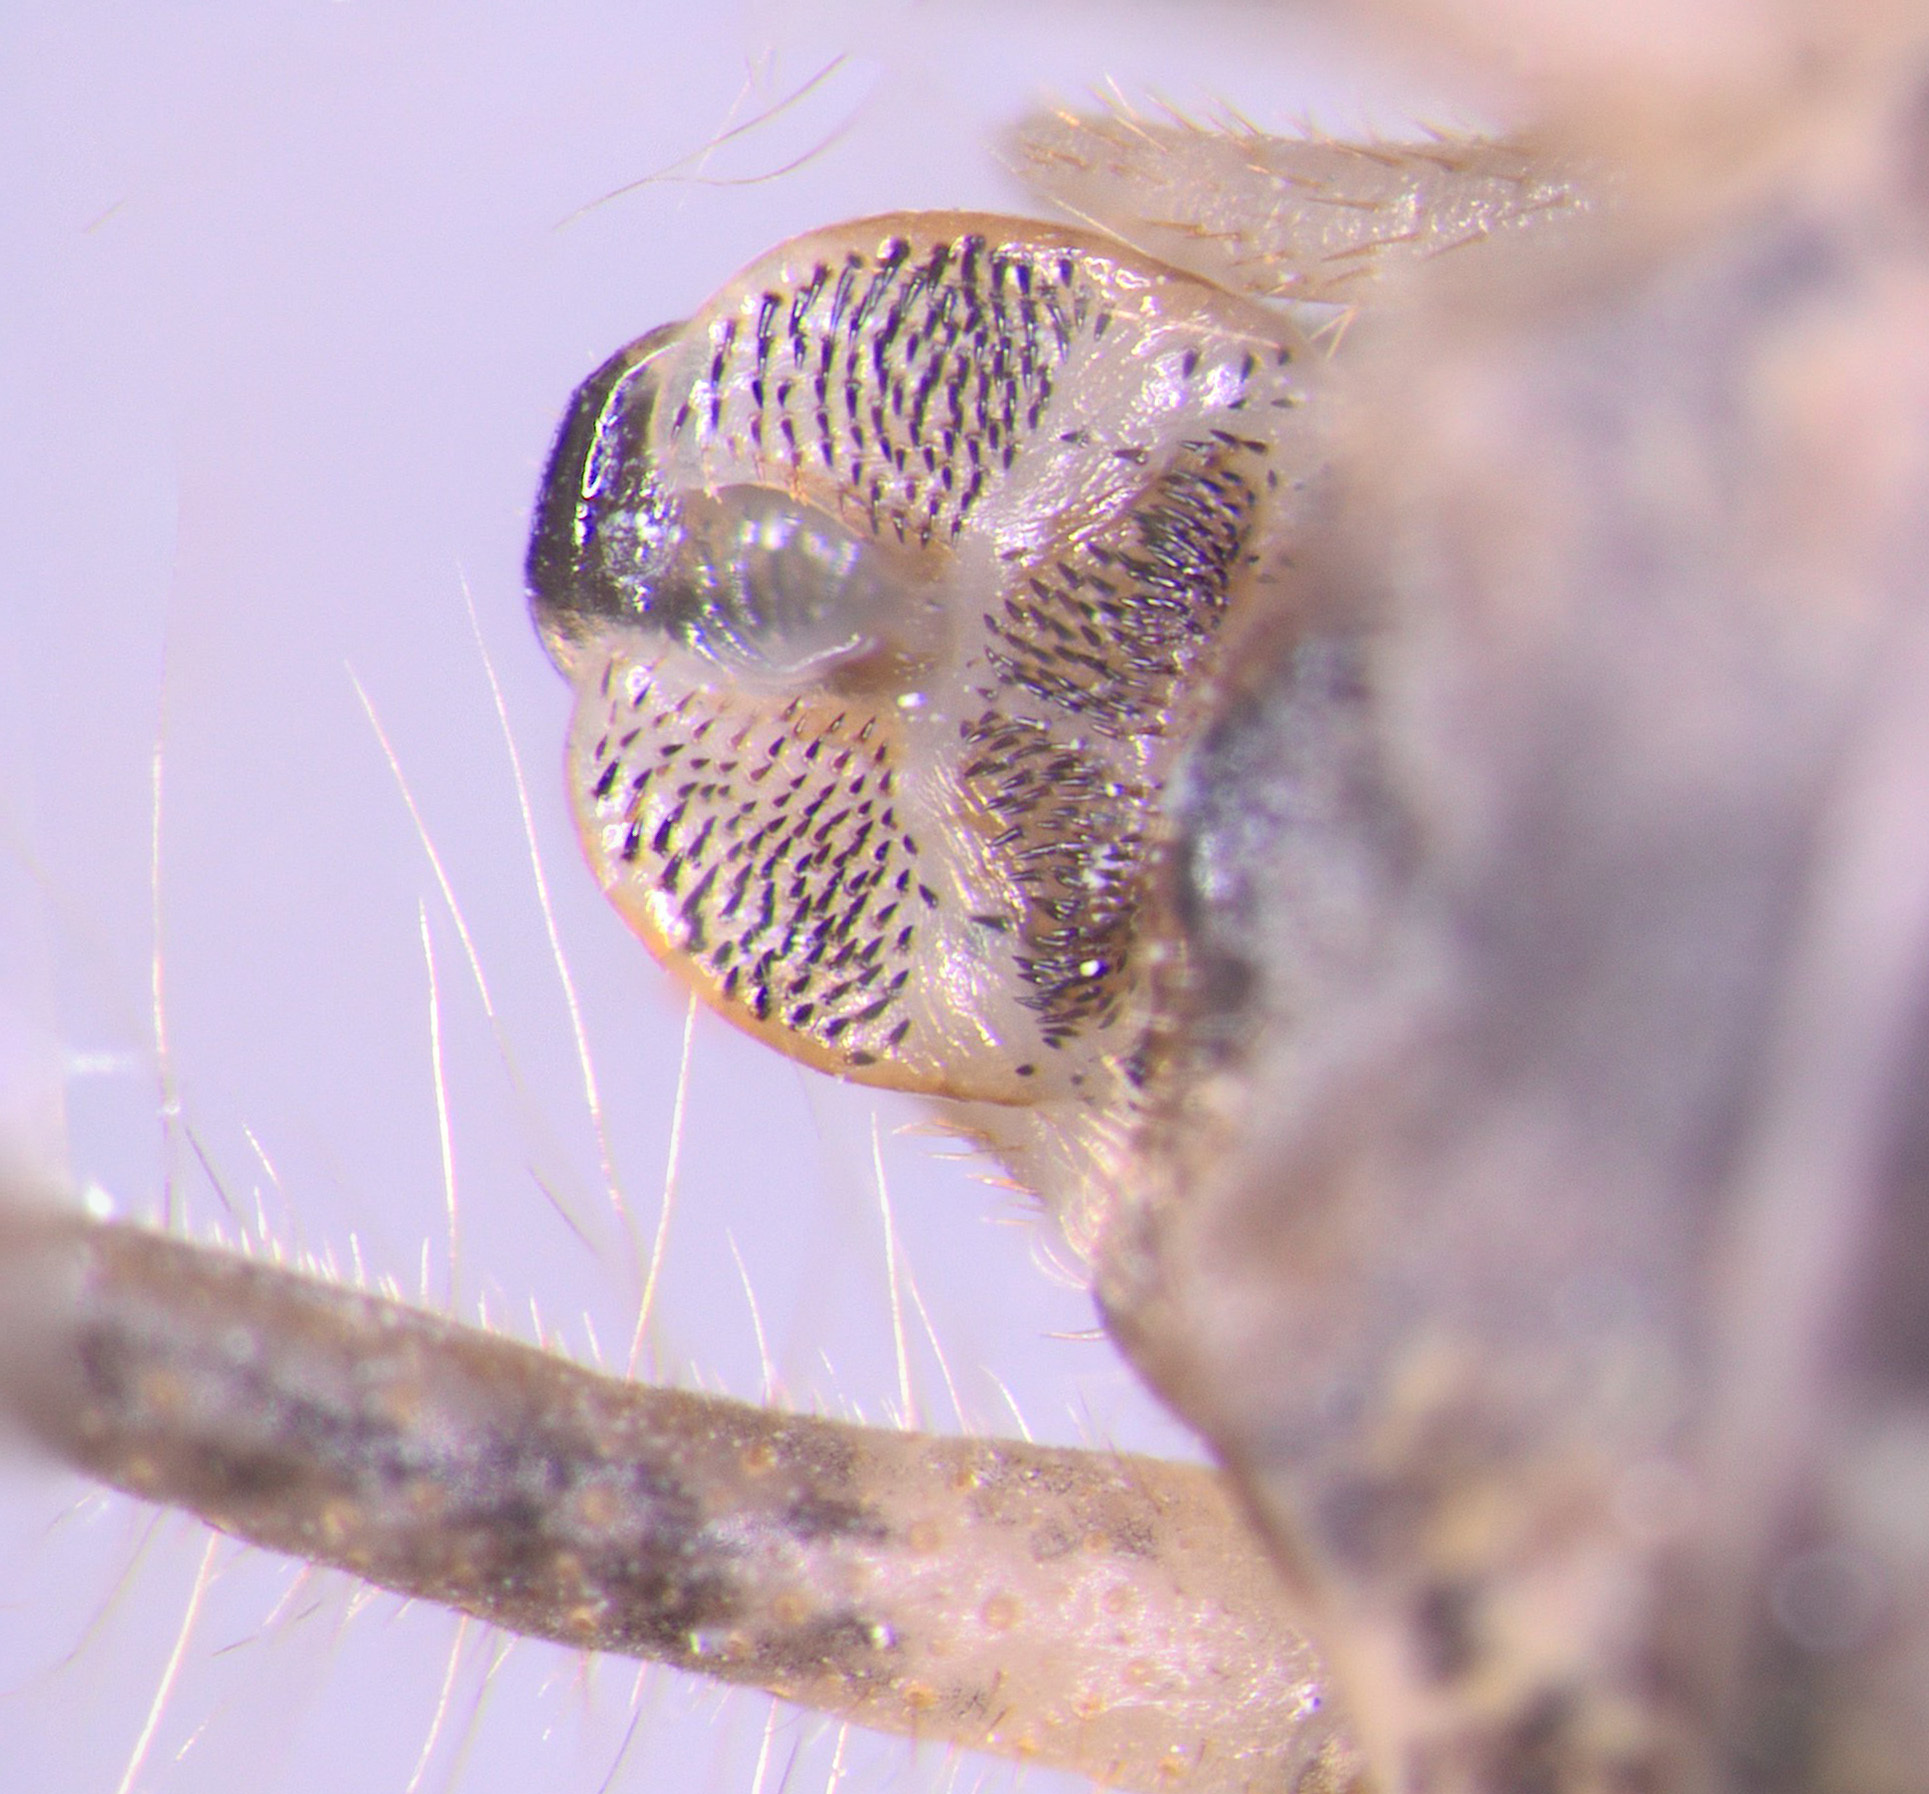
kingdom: Animalia
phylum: Arthropoda
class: Insecta
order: Orthoptera
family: Rhaphidophoridae
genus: Setascutum
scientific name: Setascutum pallidum
